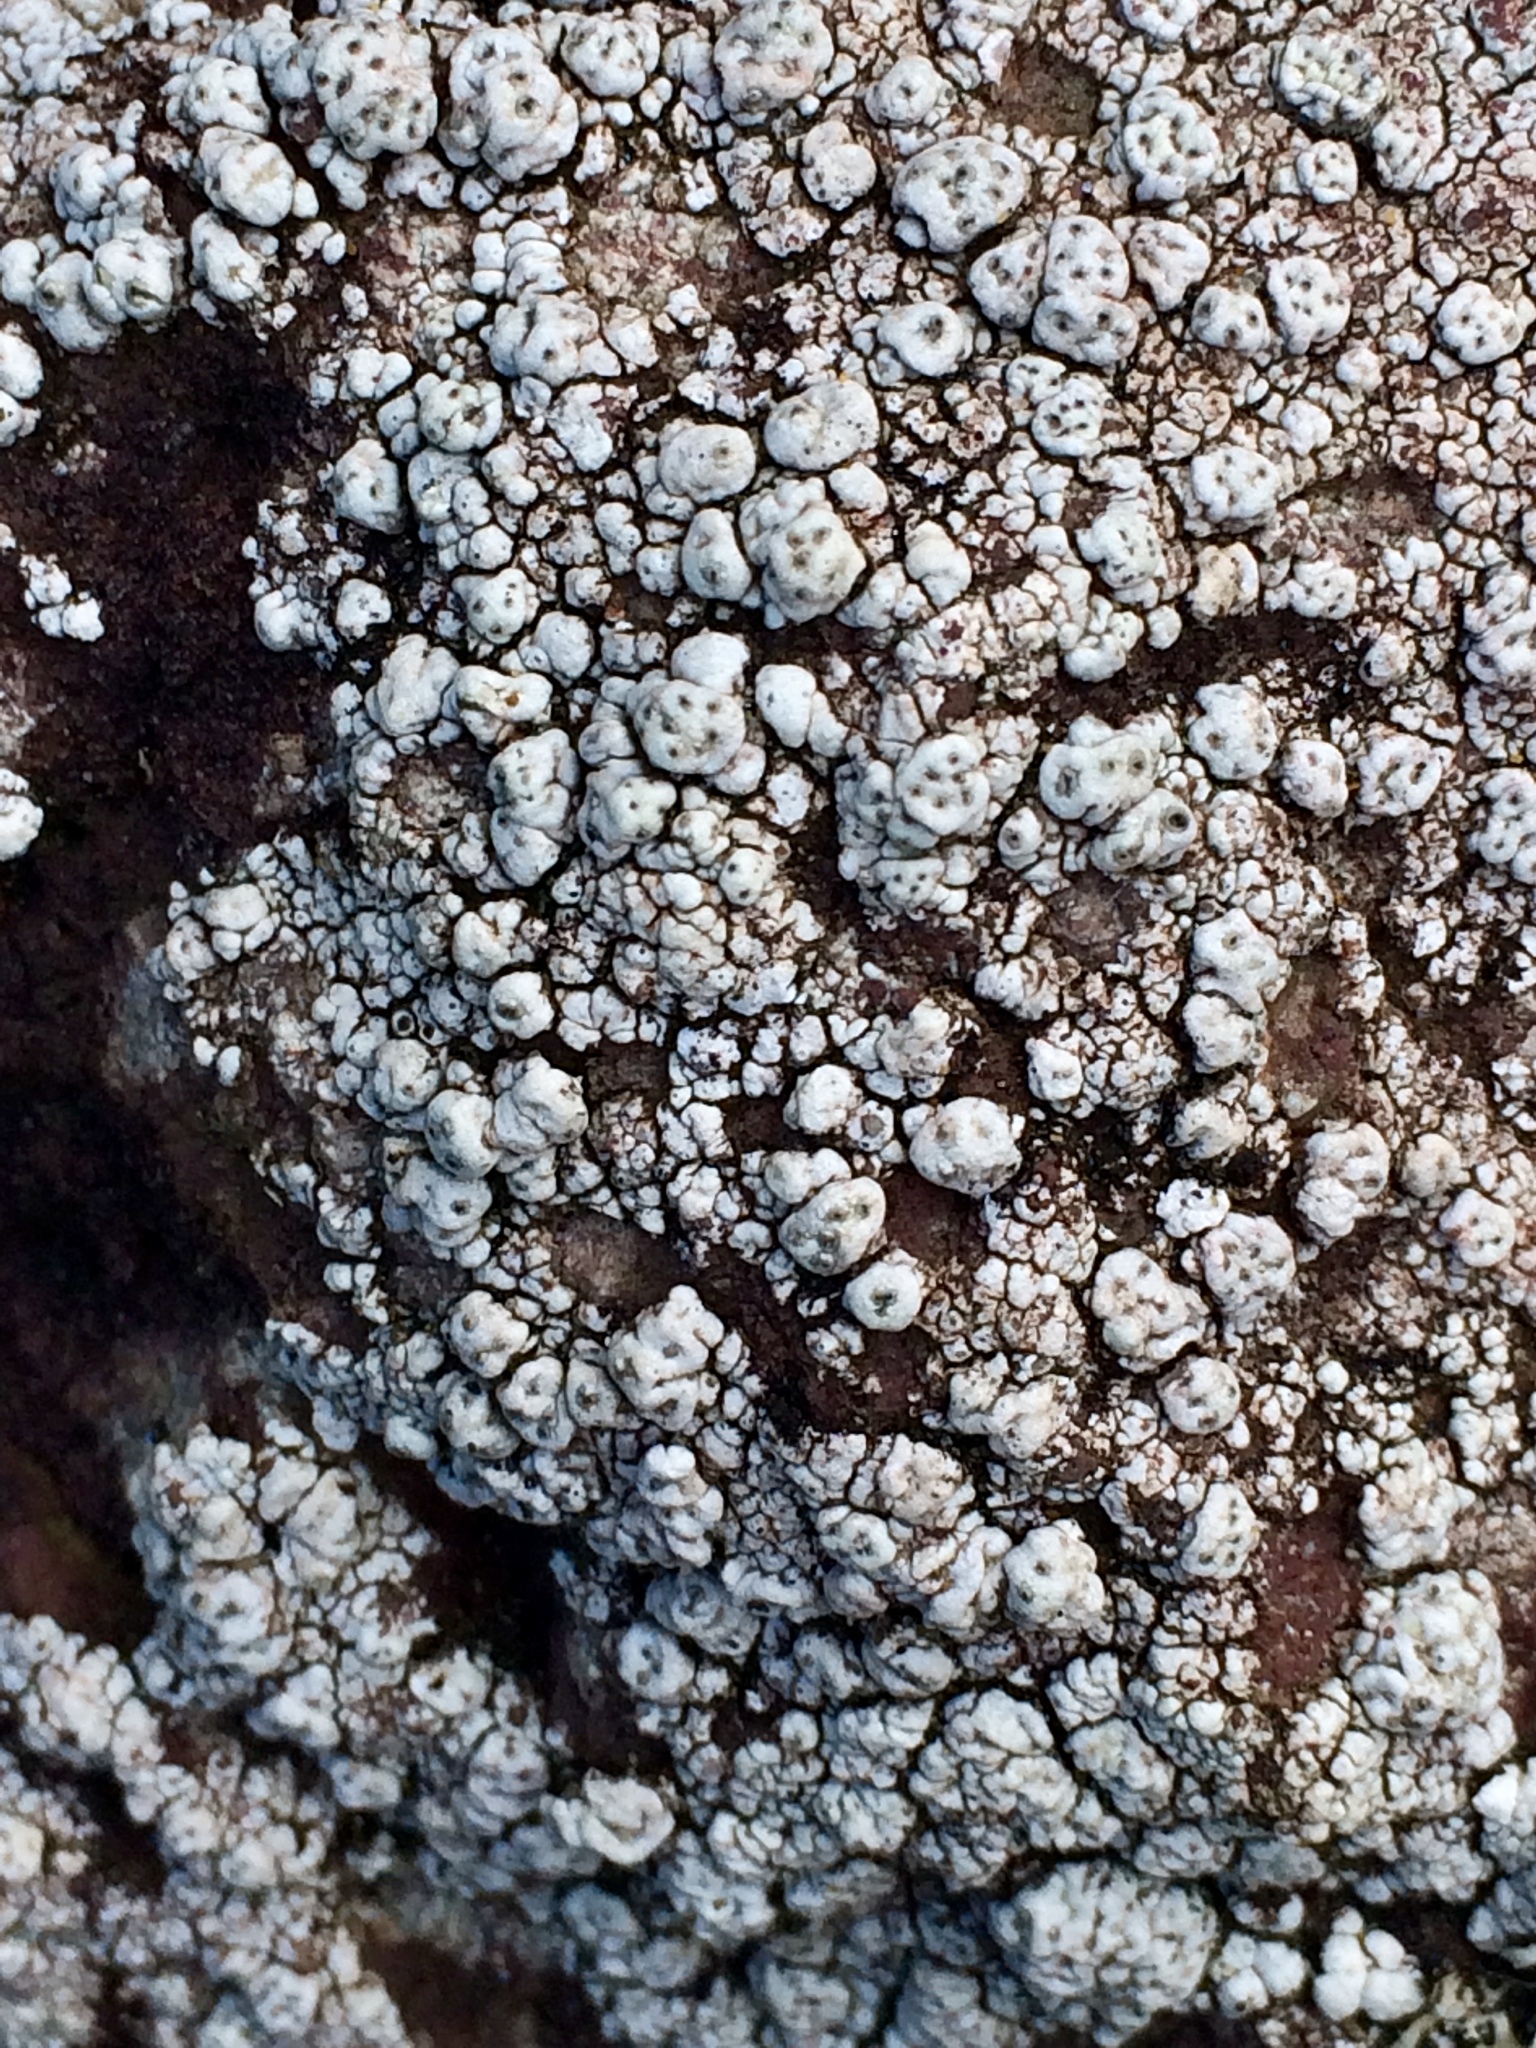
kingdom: Fungi
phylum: Ascomycota
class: Lecanoromycetes
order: Pertusariales
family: Pertusariaceae
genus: Pertusaria
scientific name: Pertusaria
